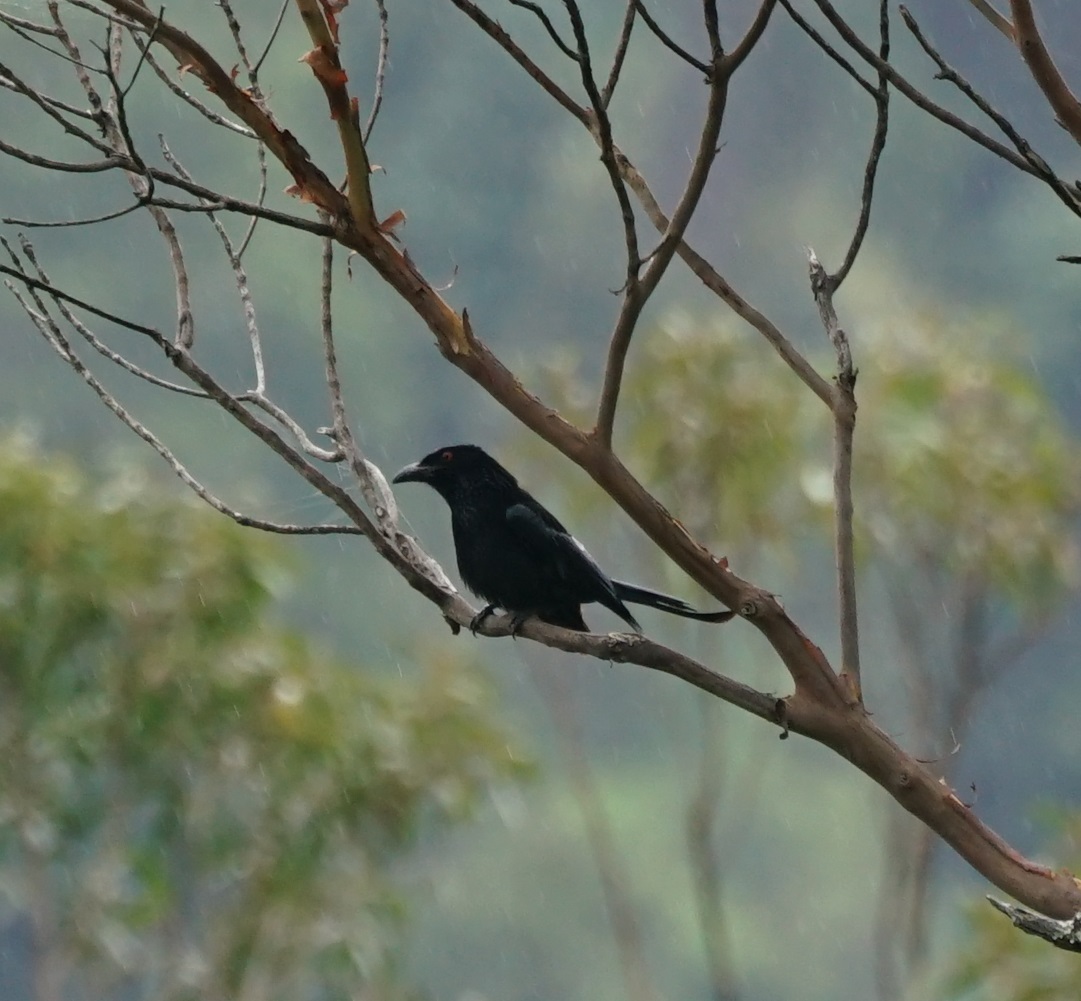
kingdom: Animalia
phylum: Chordata
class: Aves
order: Passeriformes
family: Dicruridae
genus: Dicrurus
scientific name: Dicrurus bracteatus
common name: Spangled drongo
